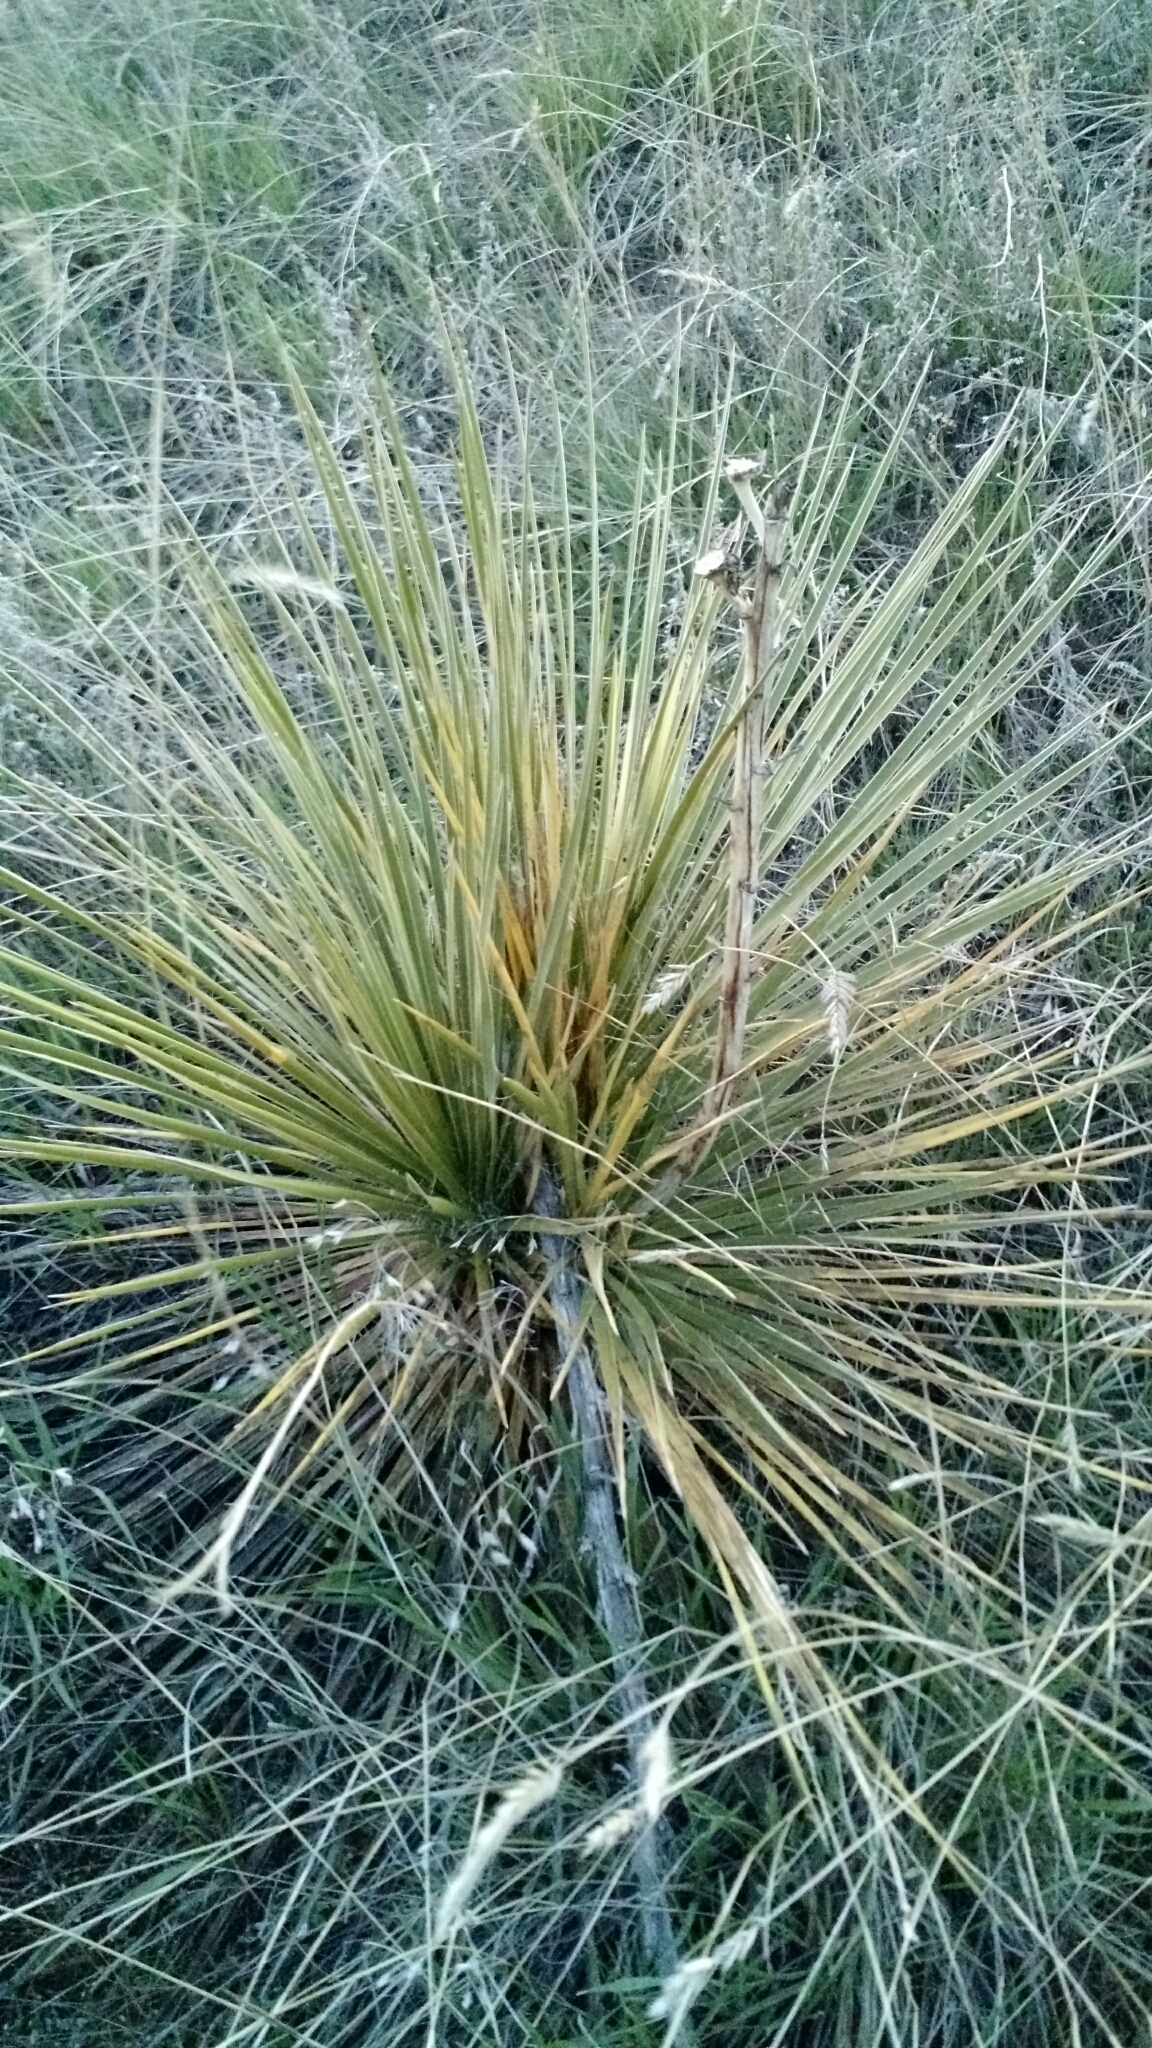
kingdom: Plantae
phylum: Tracheophyta
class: Liliopsida
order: Asparagales
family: Asparagaceae
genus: Yucca
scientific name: Yucca glauca
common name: Great plains yucca
